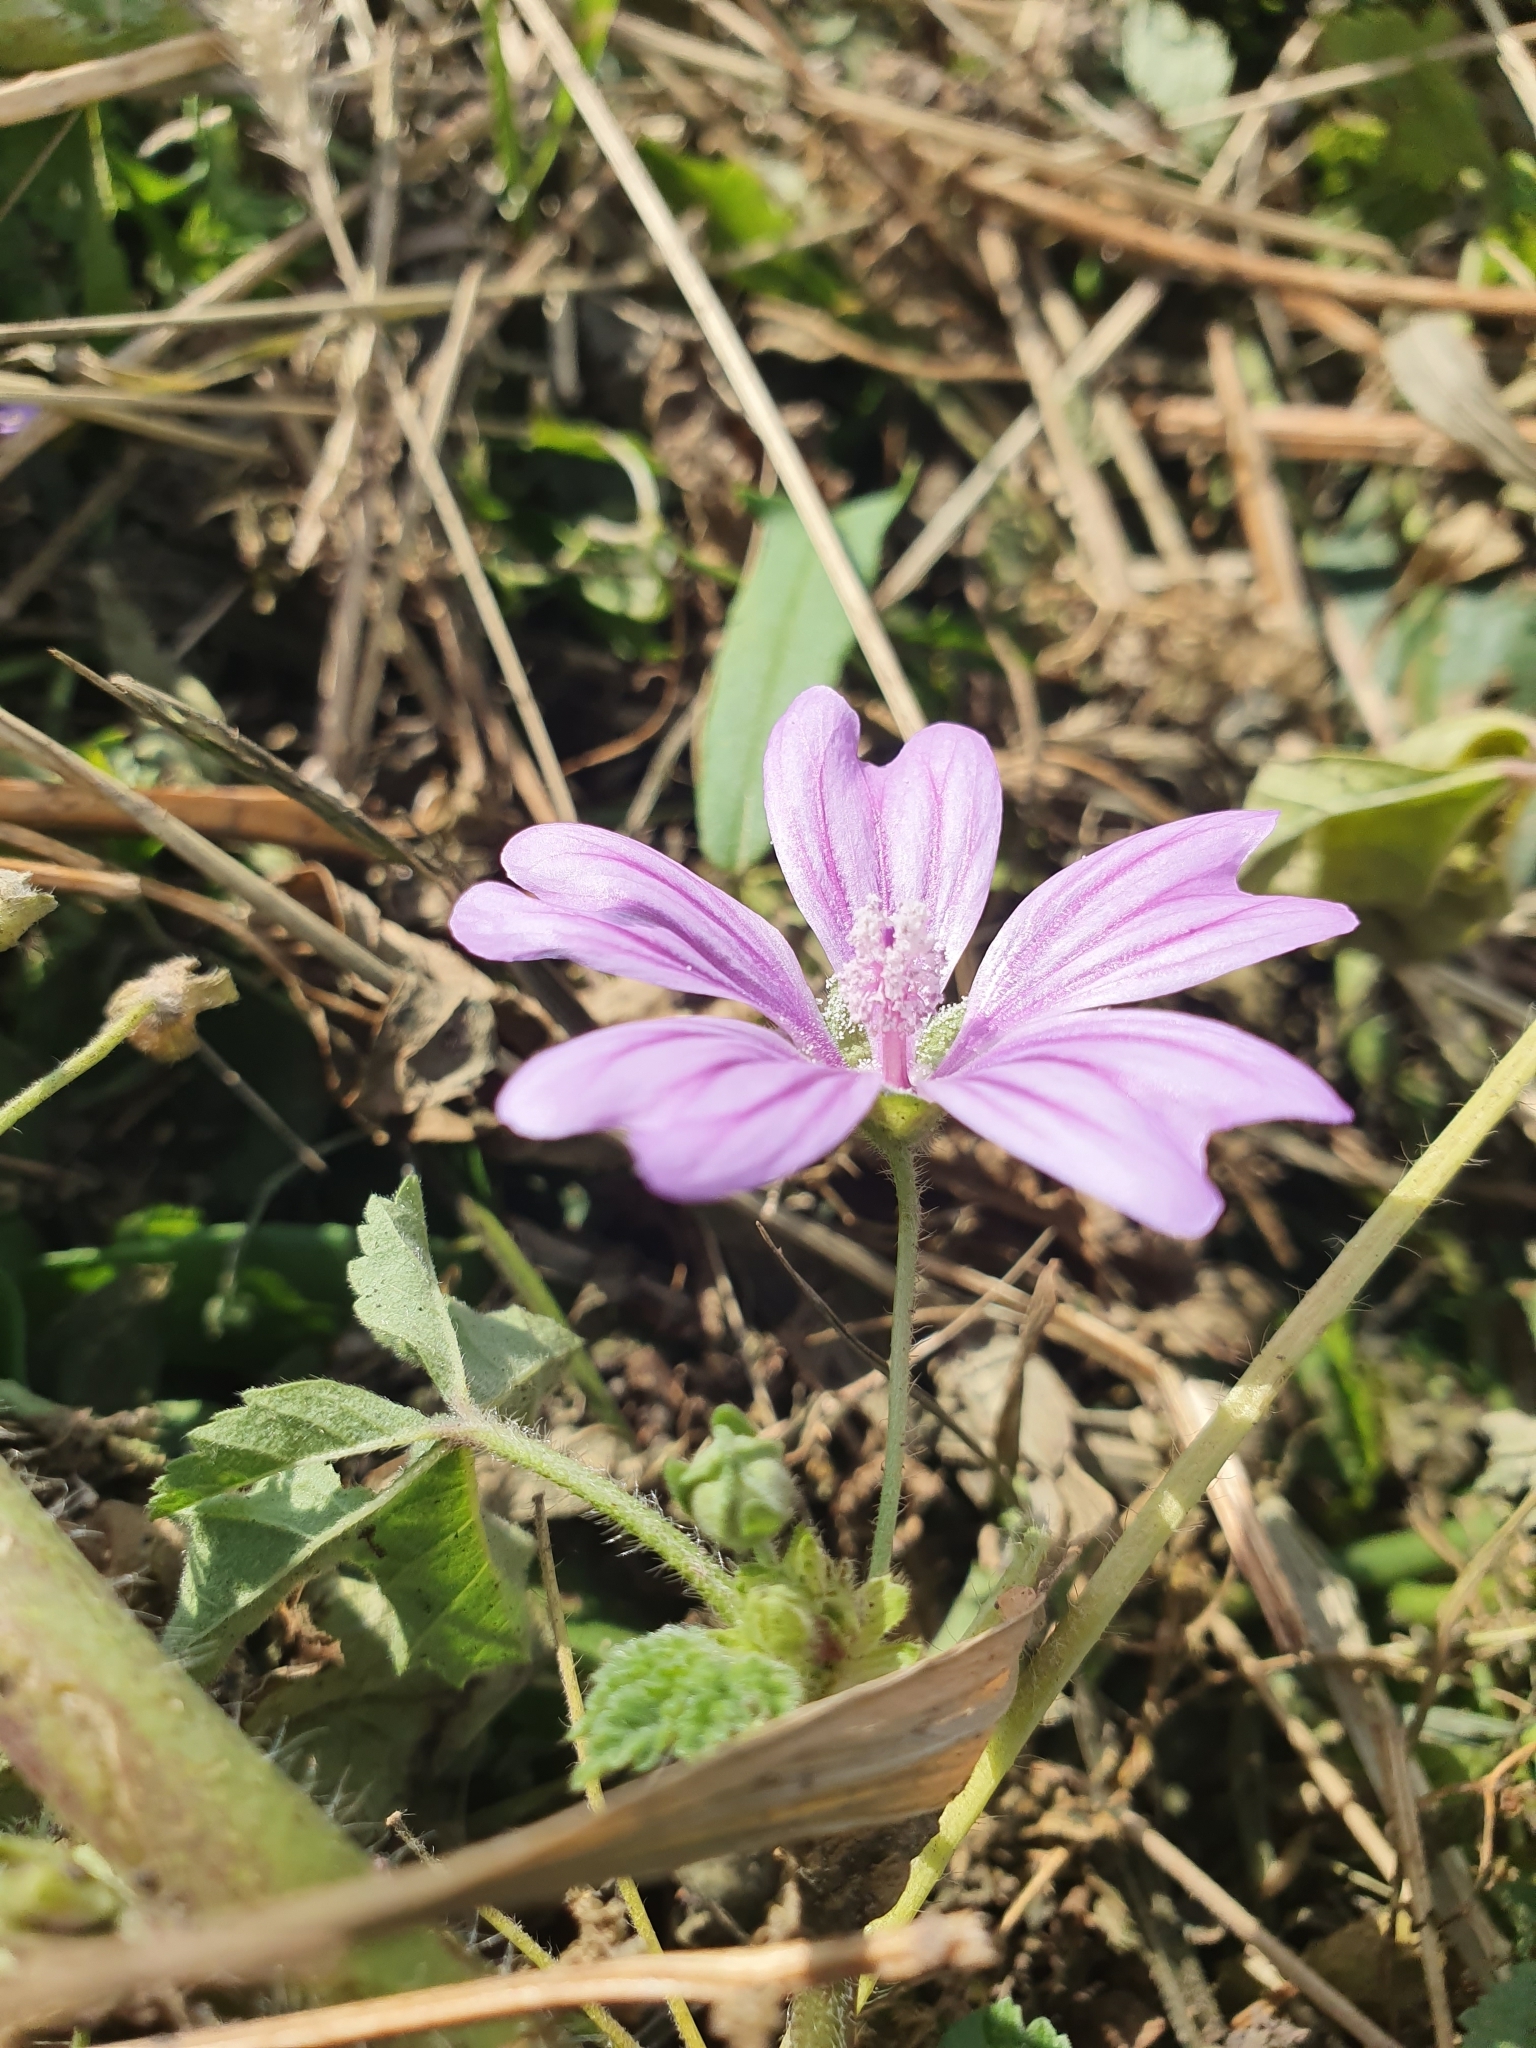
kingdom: Plantae
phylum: Tracheophyta
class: Magnoliopsida
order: Malvales
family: Malvaceae
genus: Malva
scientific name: Malva sylvestris
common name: Common mallow
